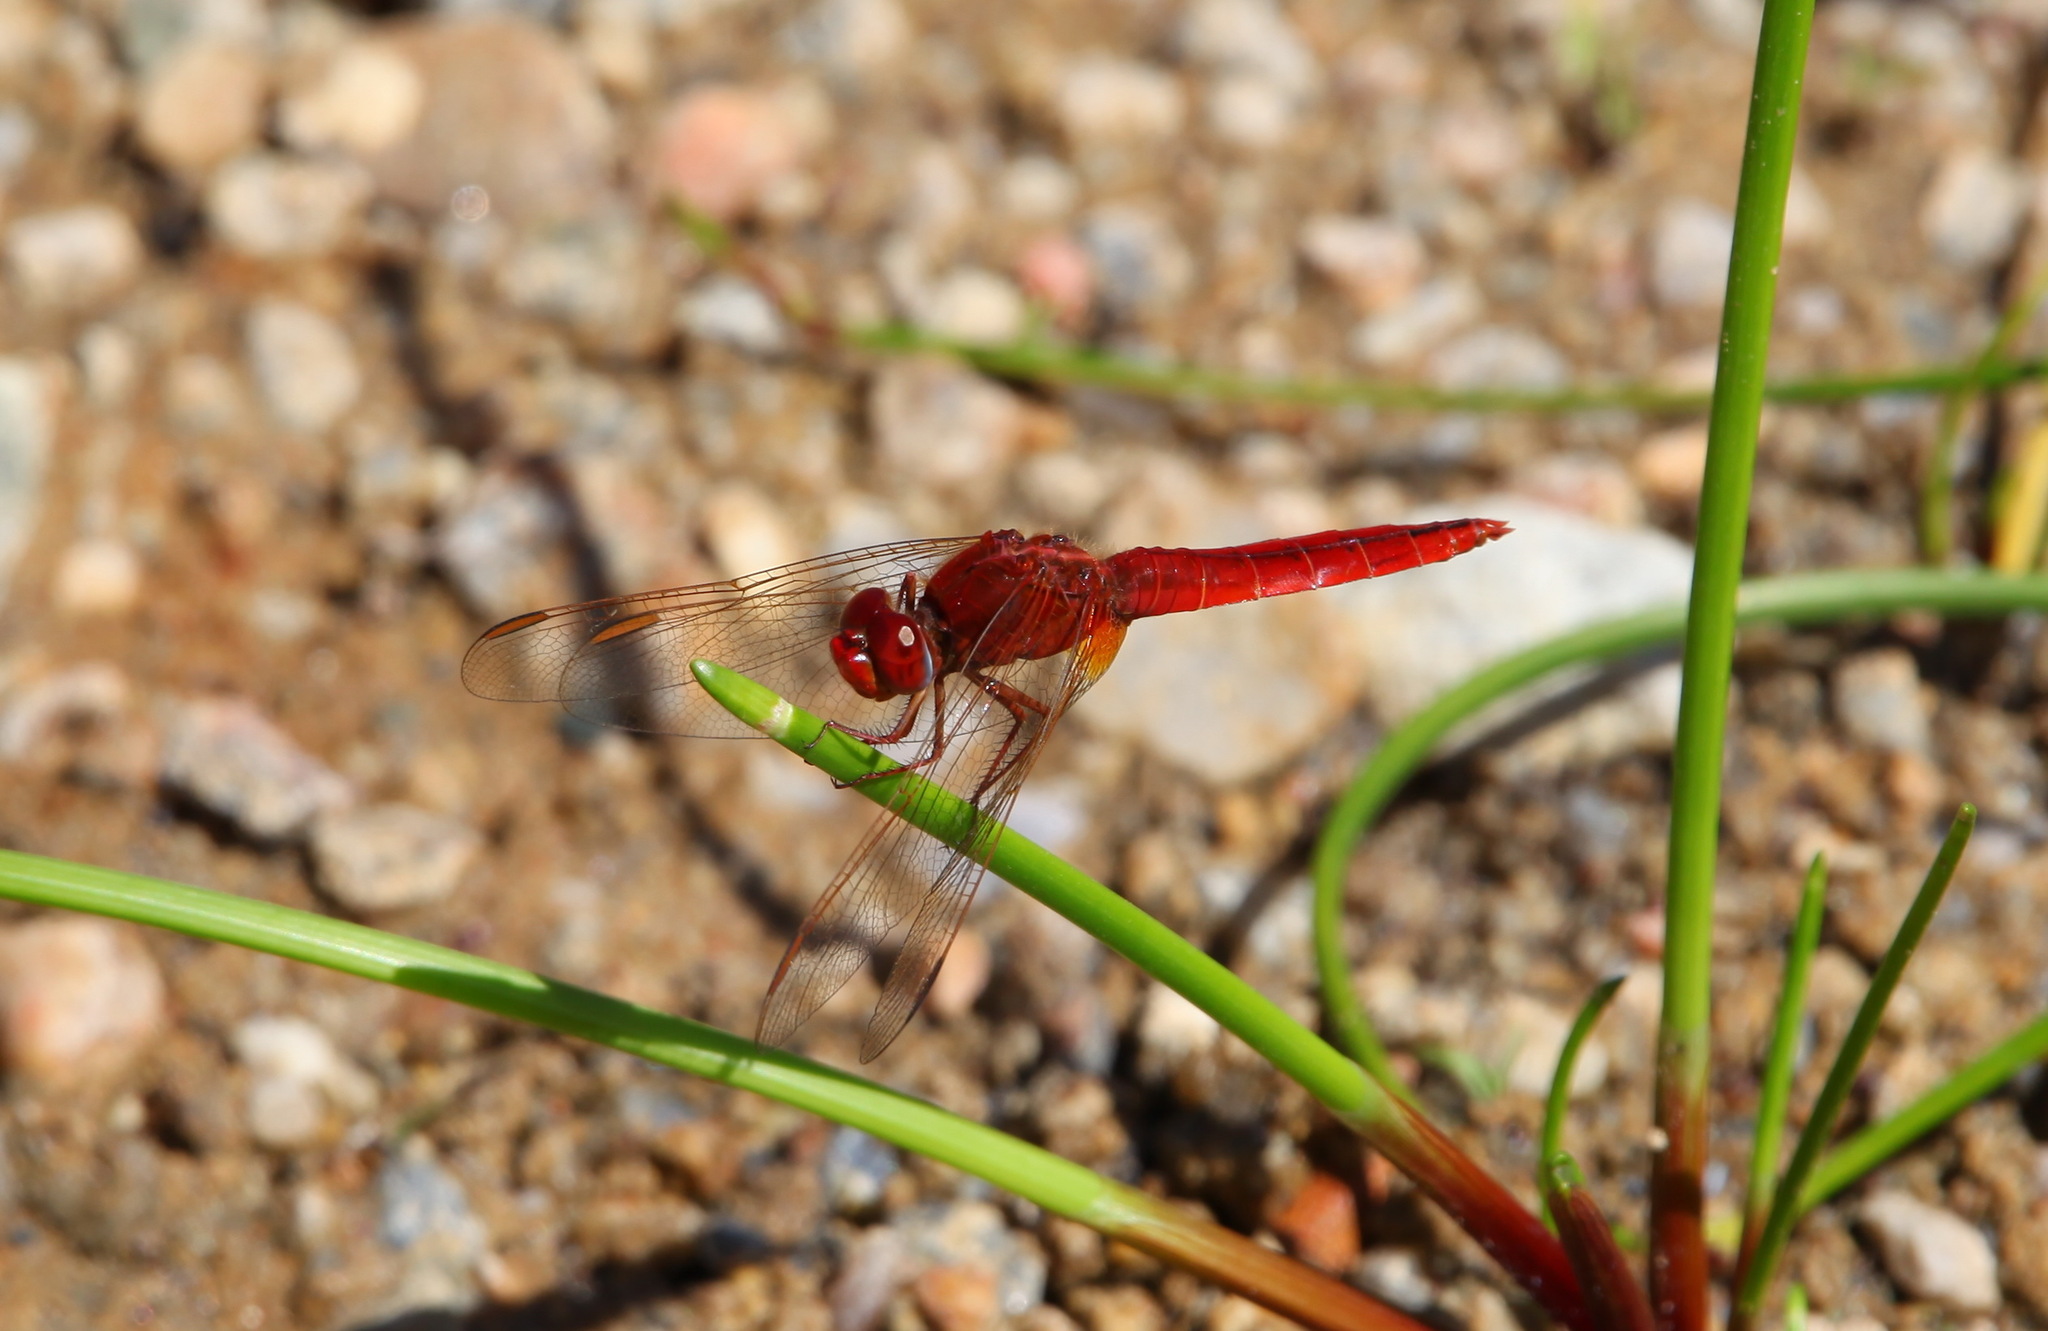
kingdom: Animalia
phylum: Arthropoda
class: Insecta
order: Odonata
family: Libellulidae
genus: Crocothemis
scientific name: Crocothemis erythraea
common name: Scarlet dragonfly
